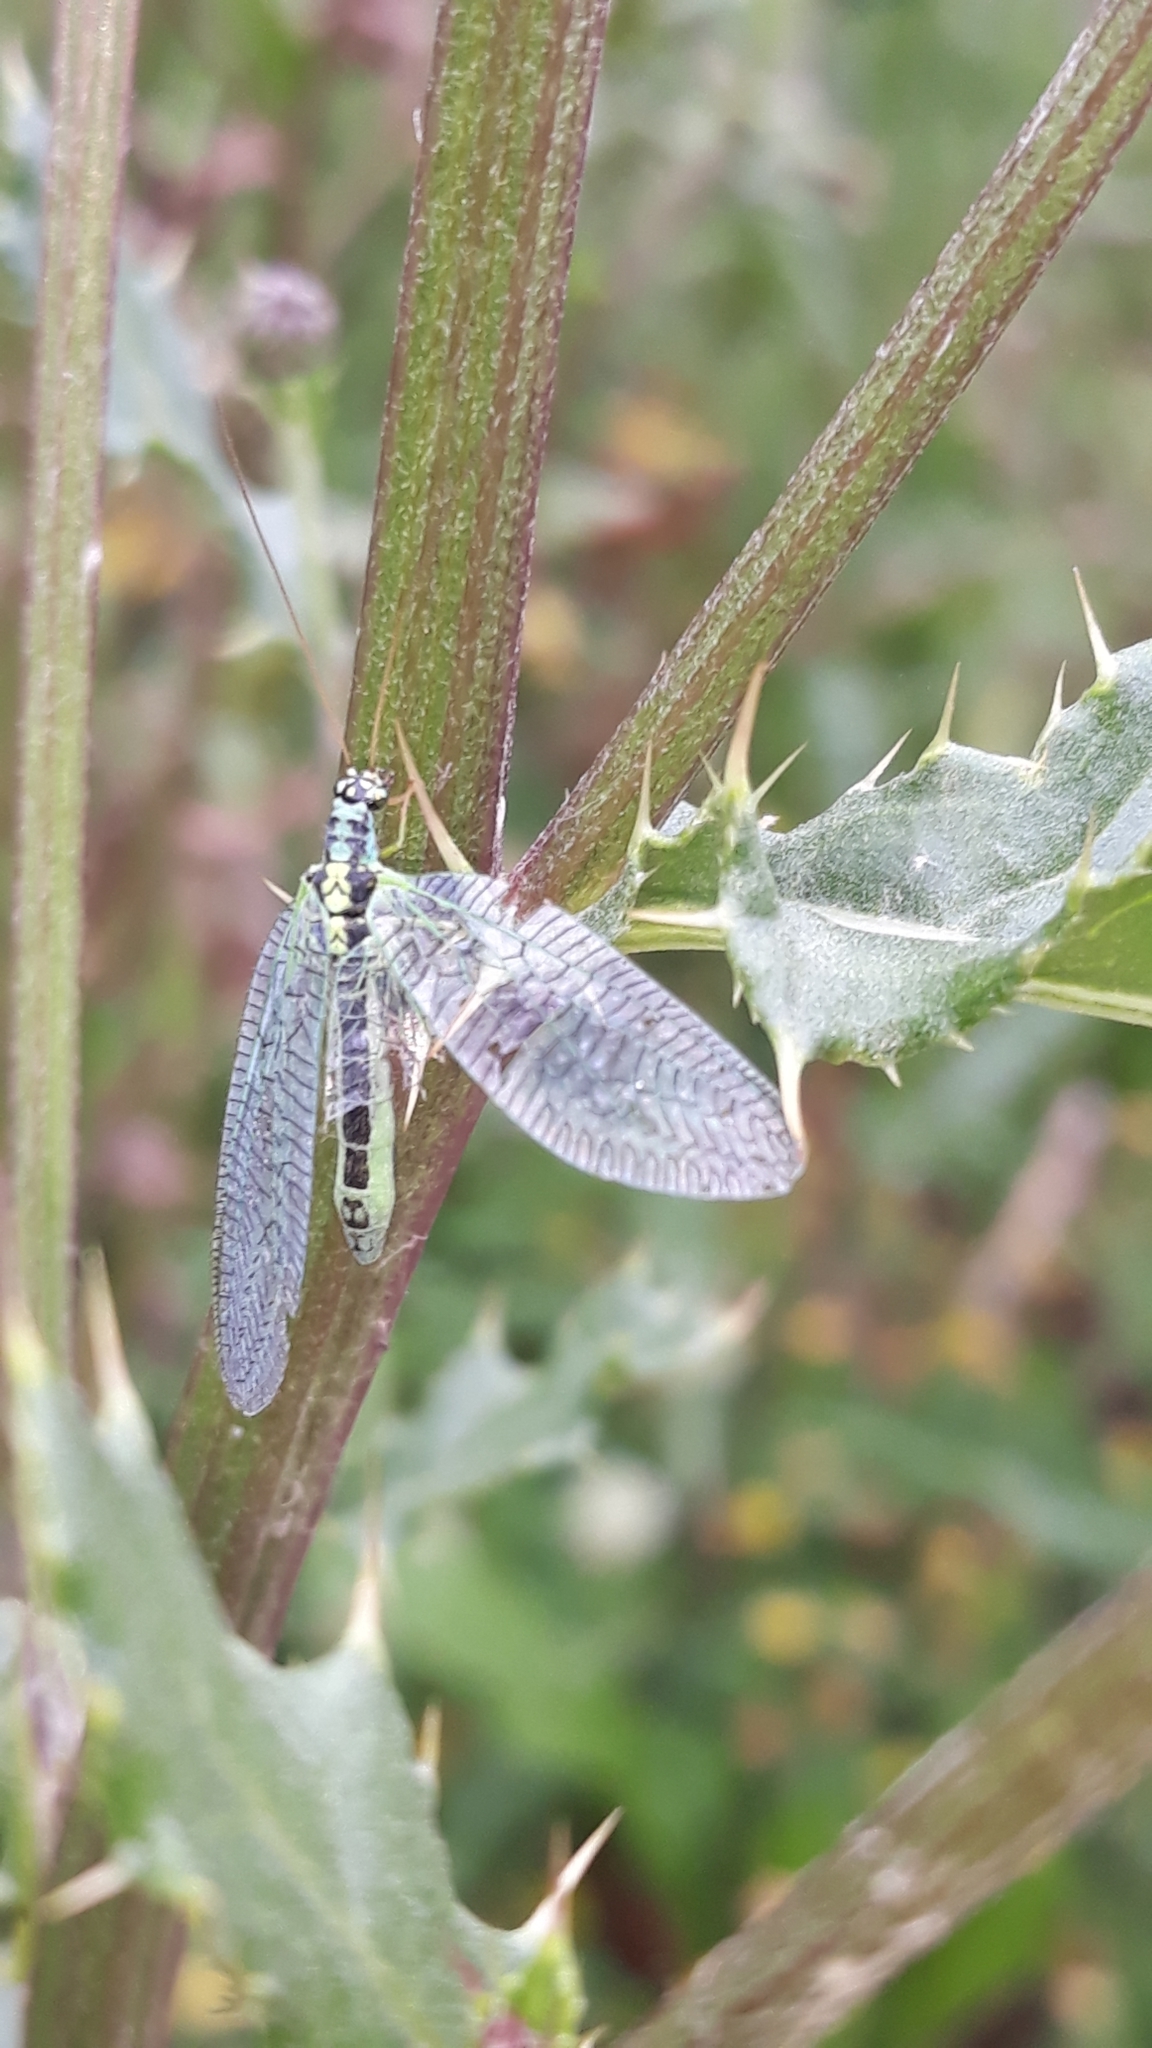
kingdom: Animalia
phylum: Arthropoda
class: Insecta
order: Neuroptera
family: Chrysopidae
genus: Chrysopa
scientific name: Chrysopa perla
